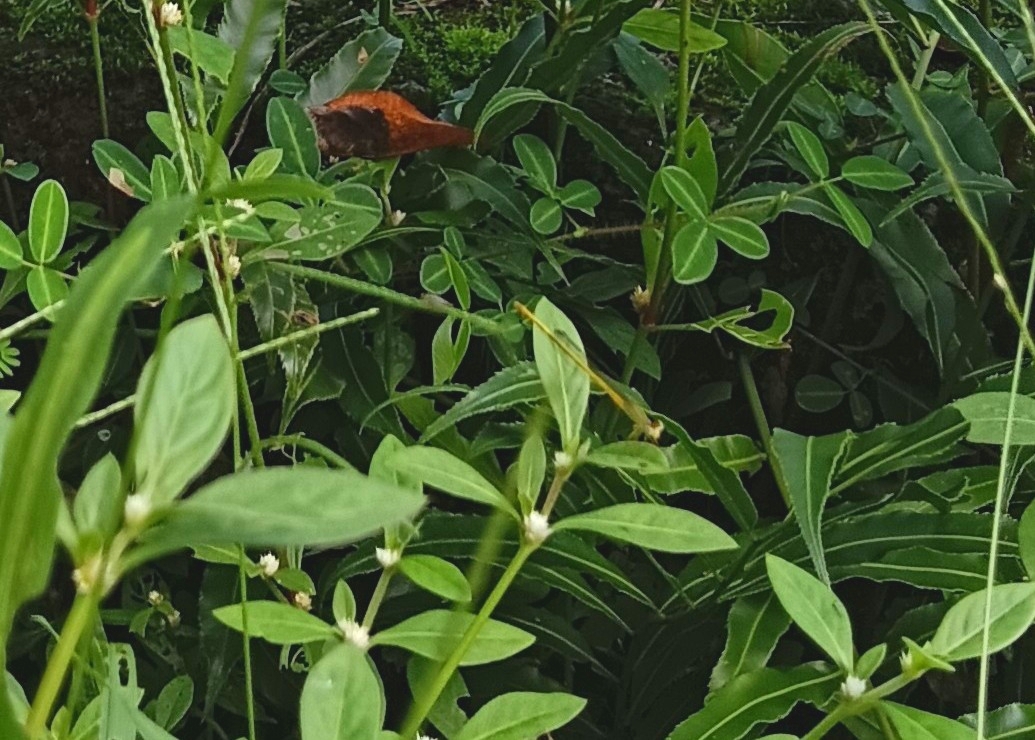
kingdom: Animalia
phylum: Arthropoda
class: Insecta
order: Odonata
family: Coenagrionidae
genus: Ceriagrion
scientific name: Ceriagrion coromandelianum
